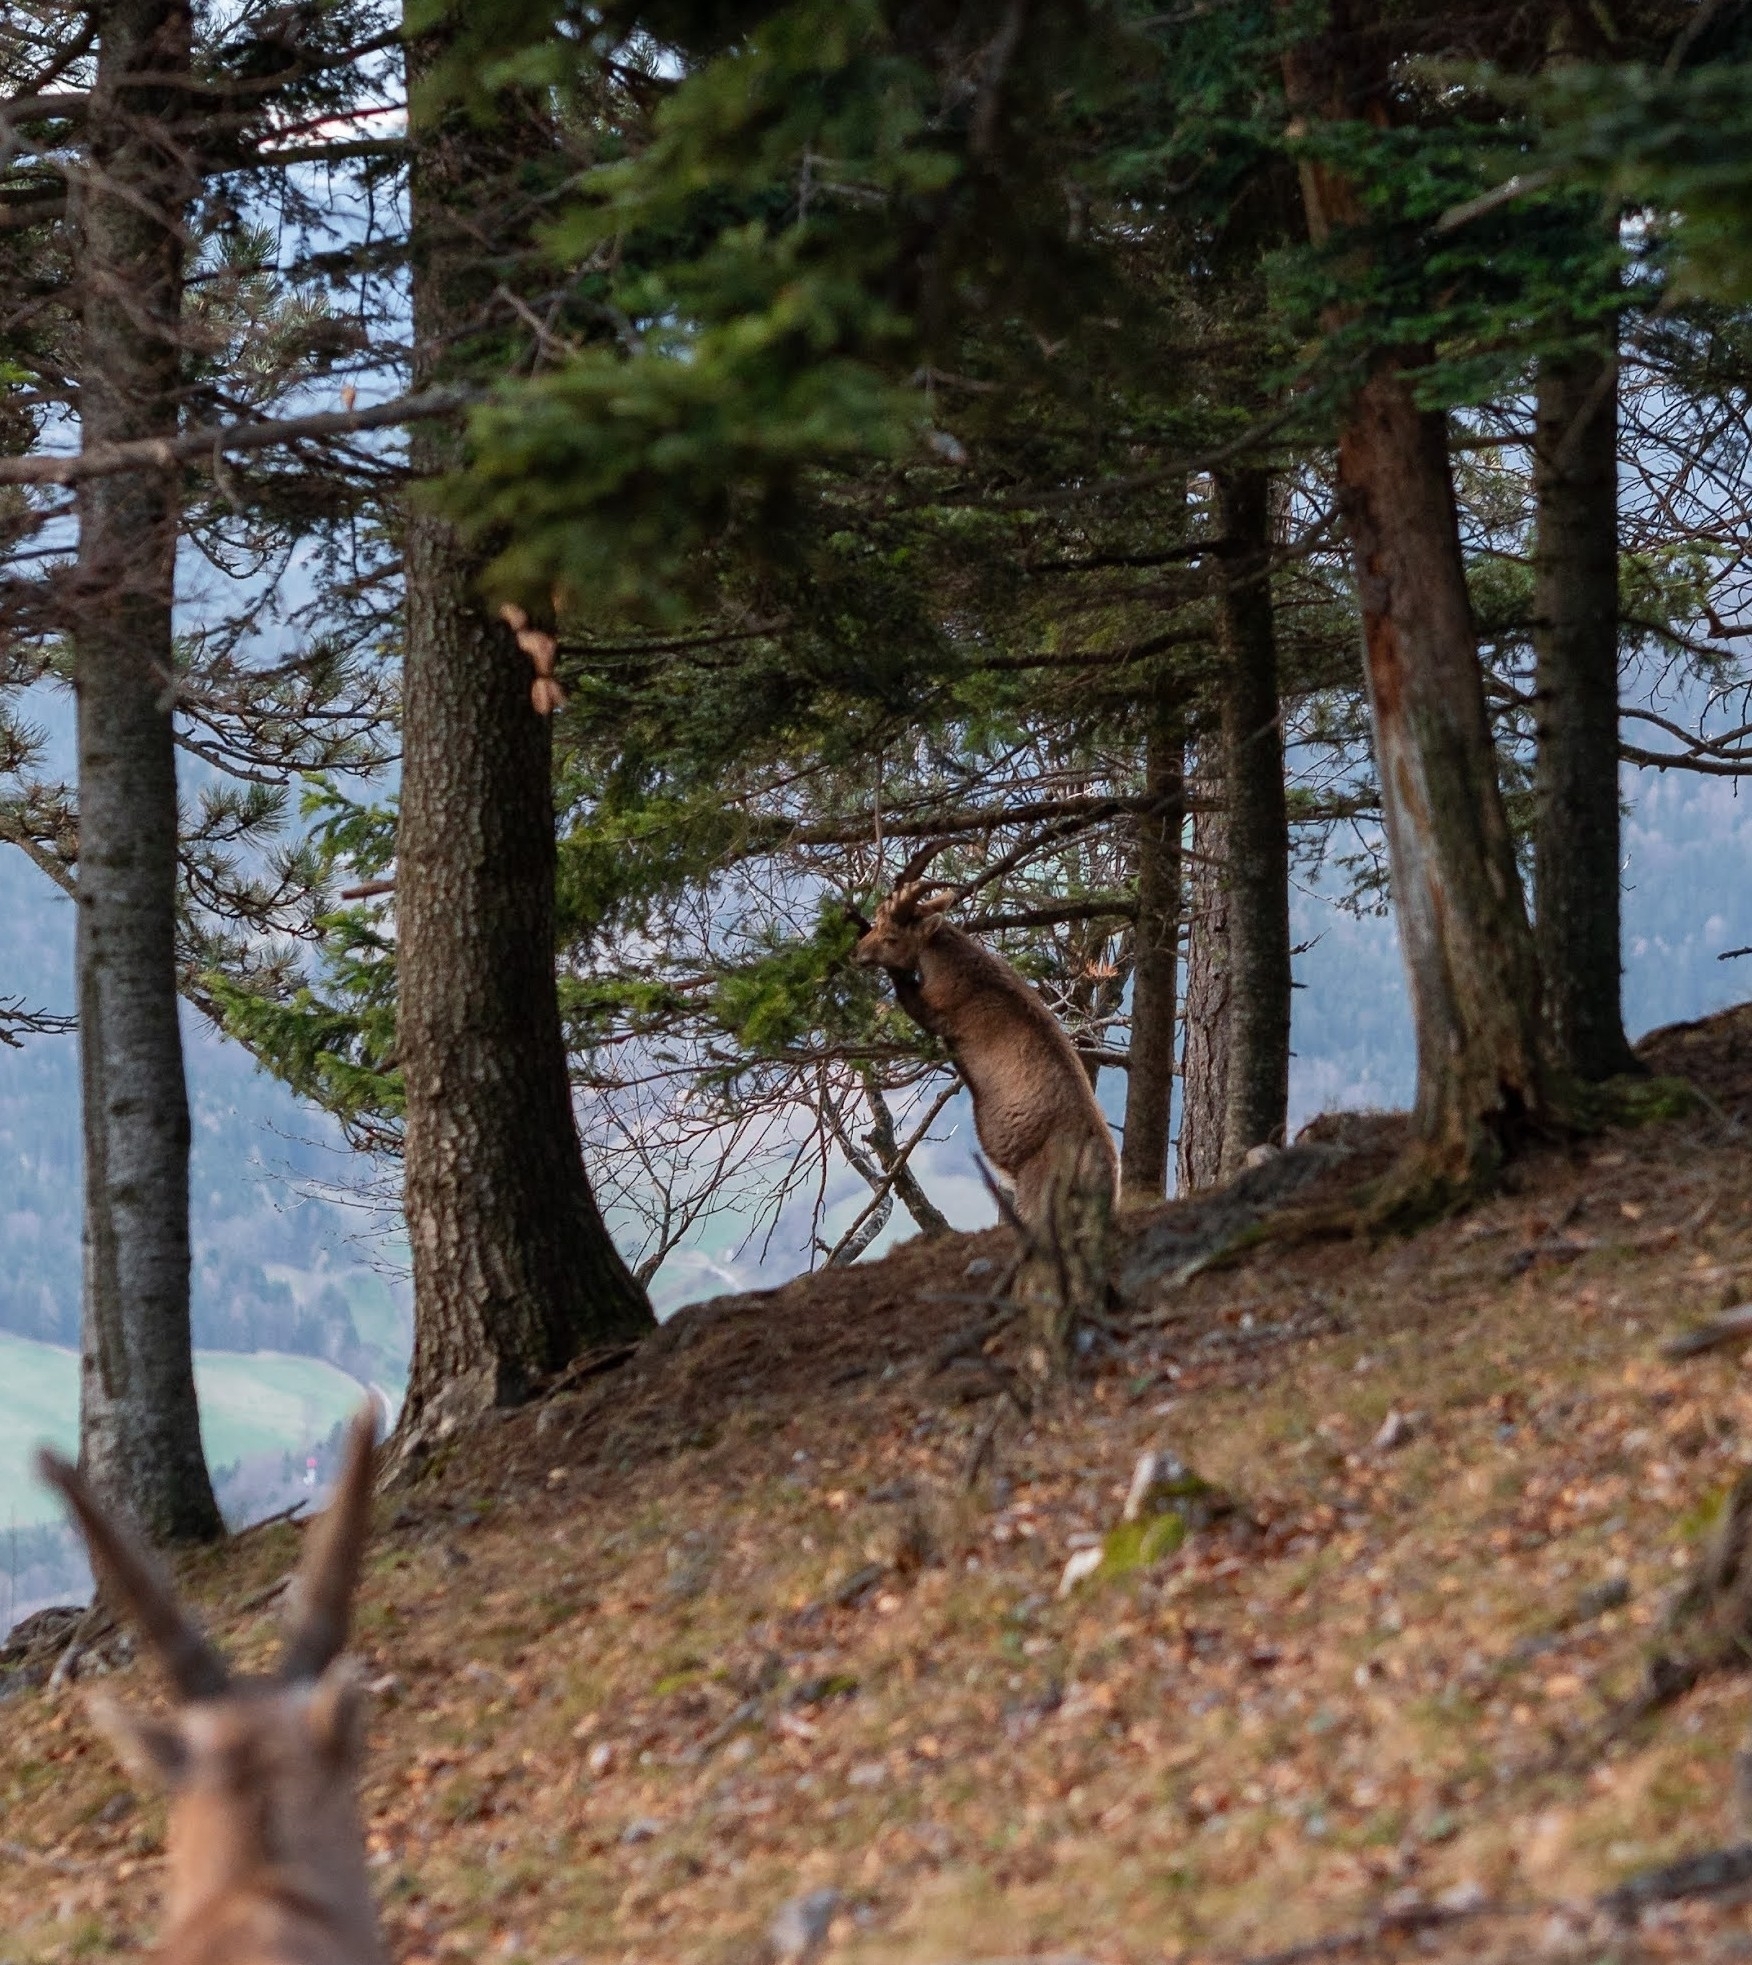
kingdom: Animalia
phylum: Chordata
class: Mammalia
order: Artiodactyla
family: Bovidae
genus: Capra
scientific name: Capra ibex
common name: Alpine ibex
